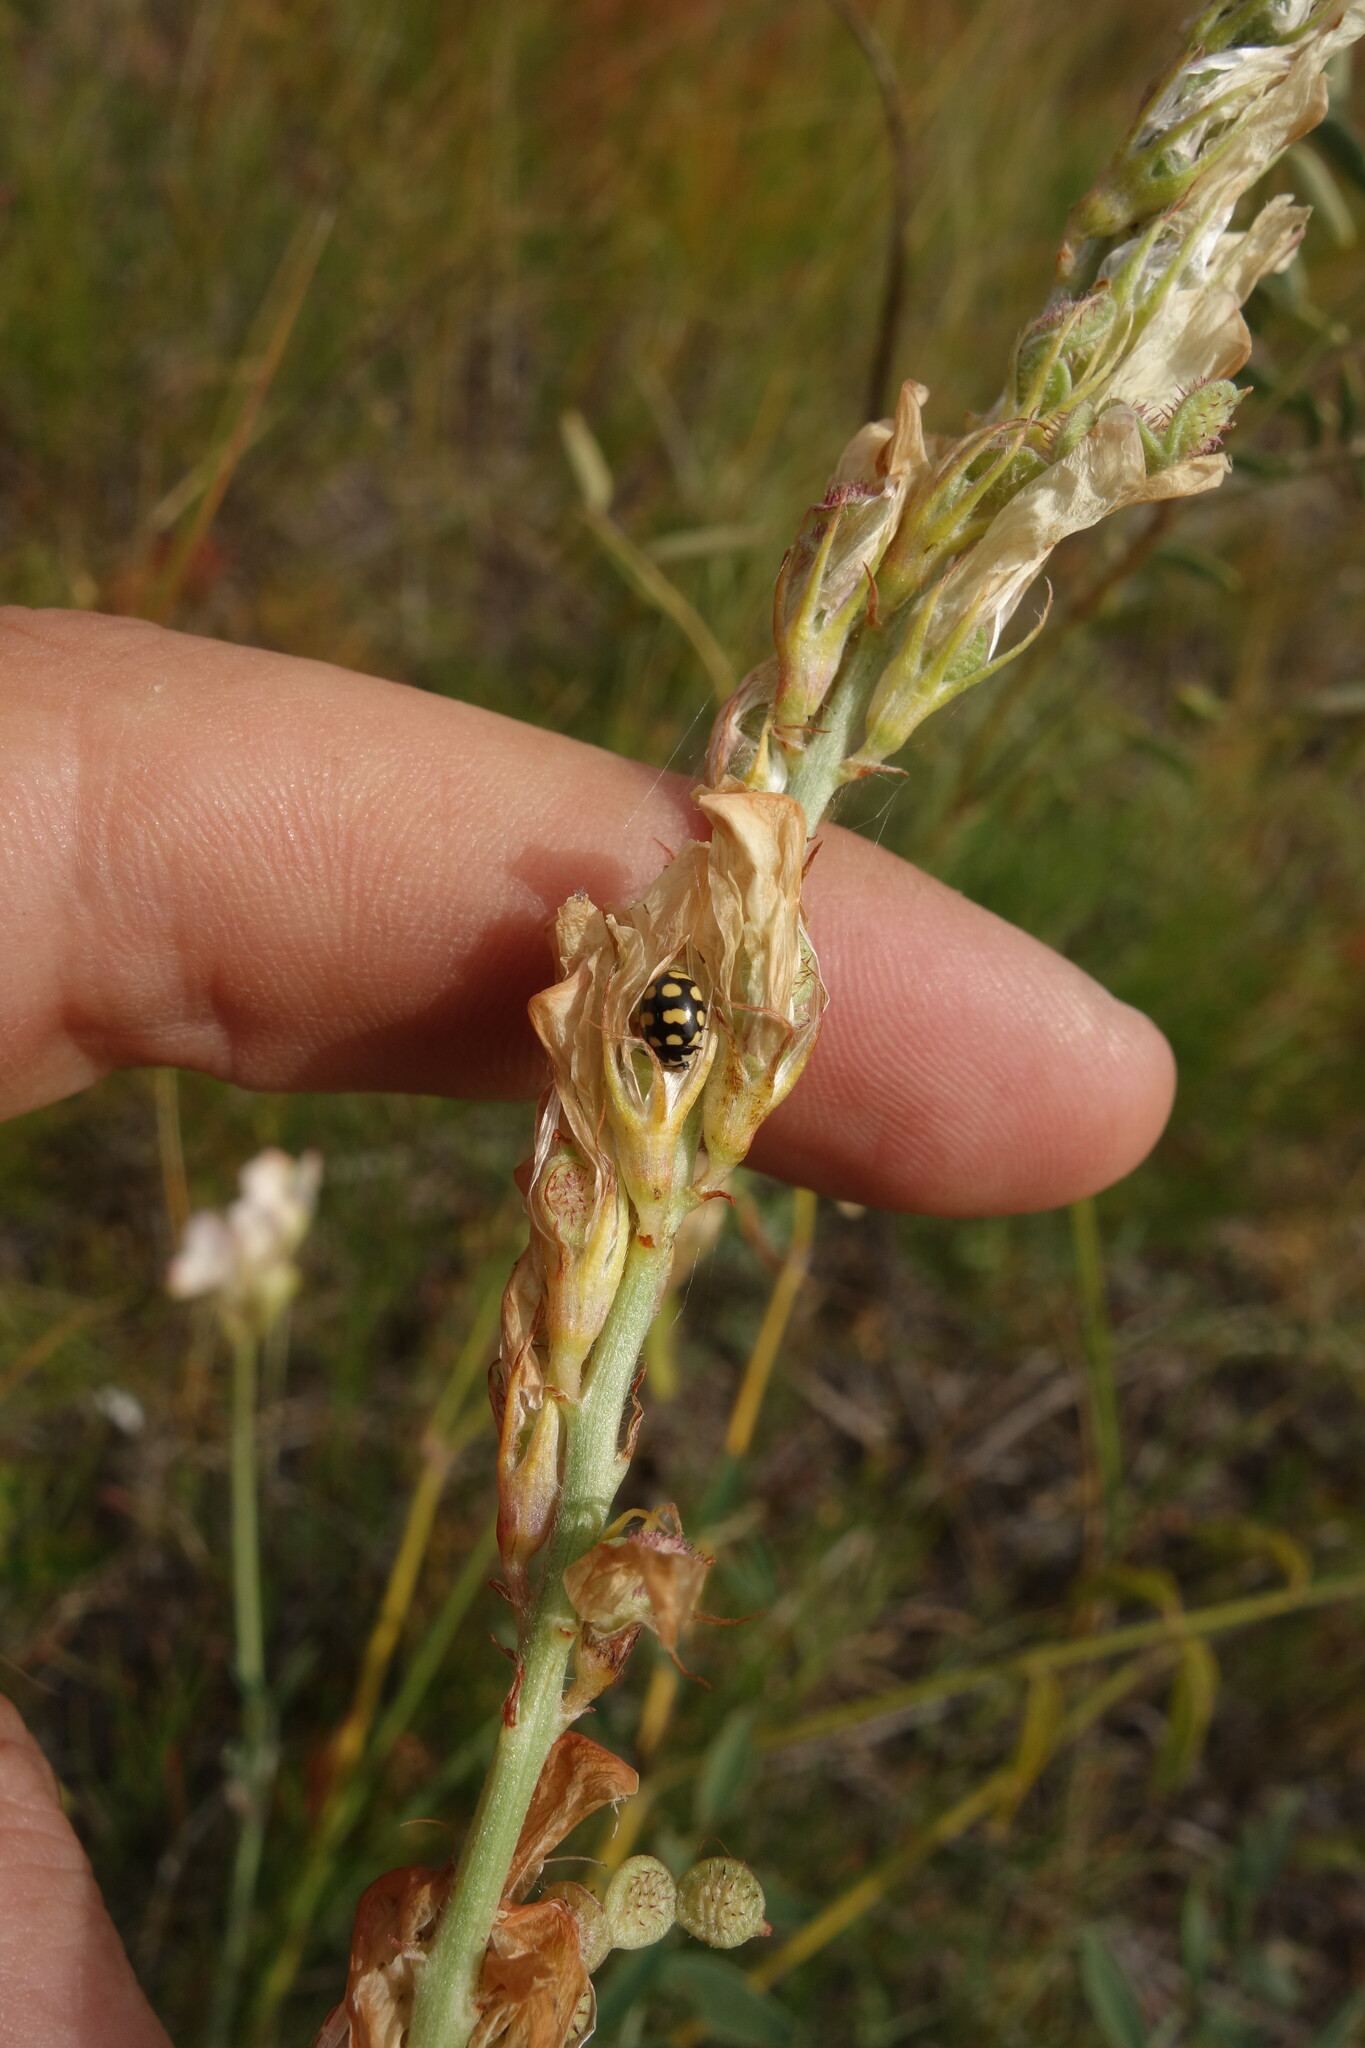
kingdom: Animalia
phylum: Arthropoda
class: Insecta
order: Coleoptera
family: Coccinellidae
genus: Coccinula
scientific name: Coccinula quatuordecimpustulata
